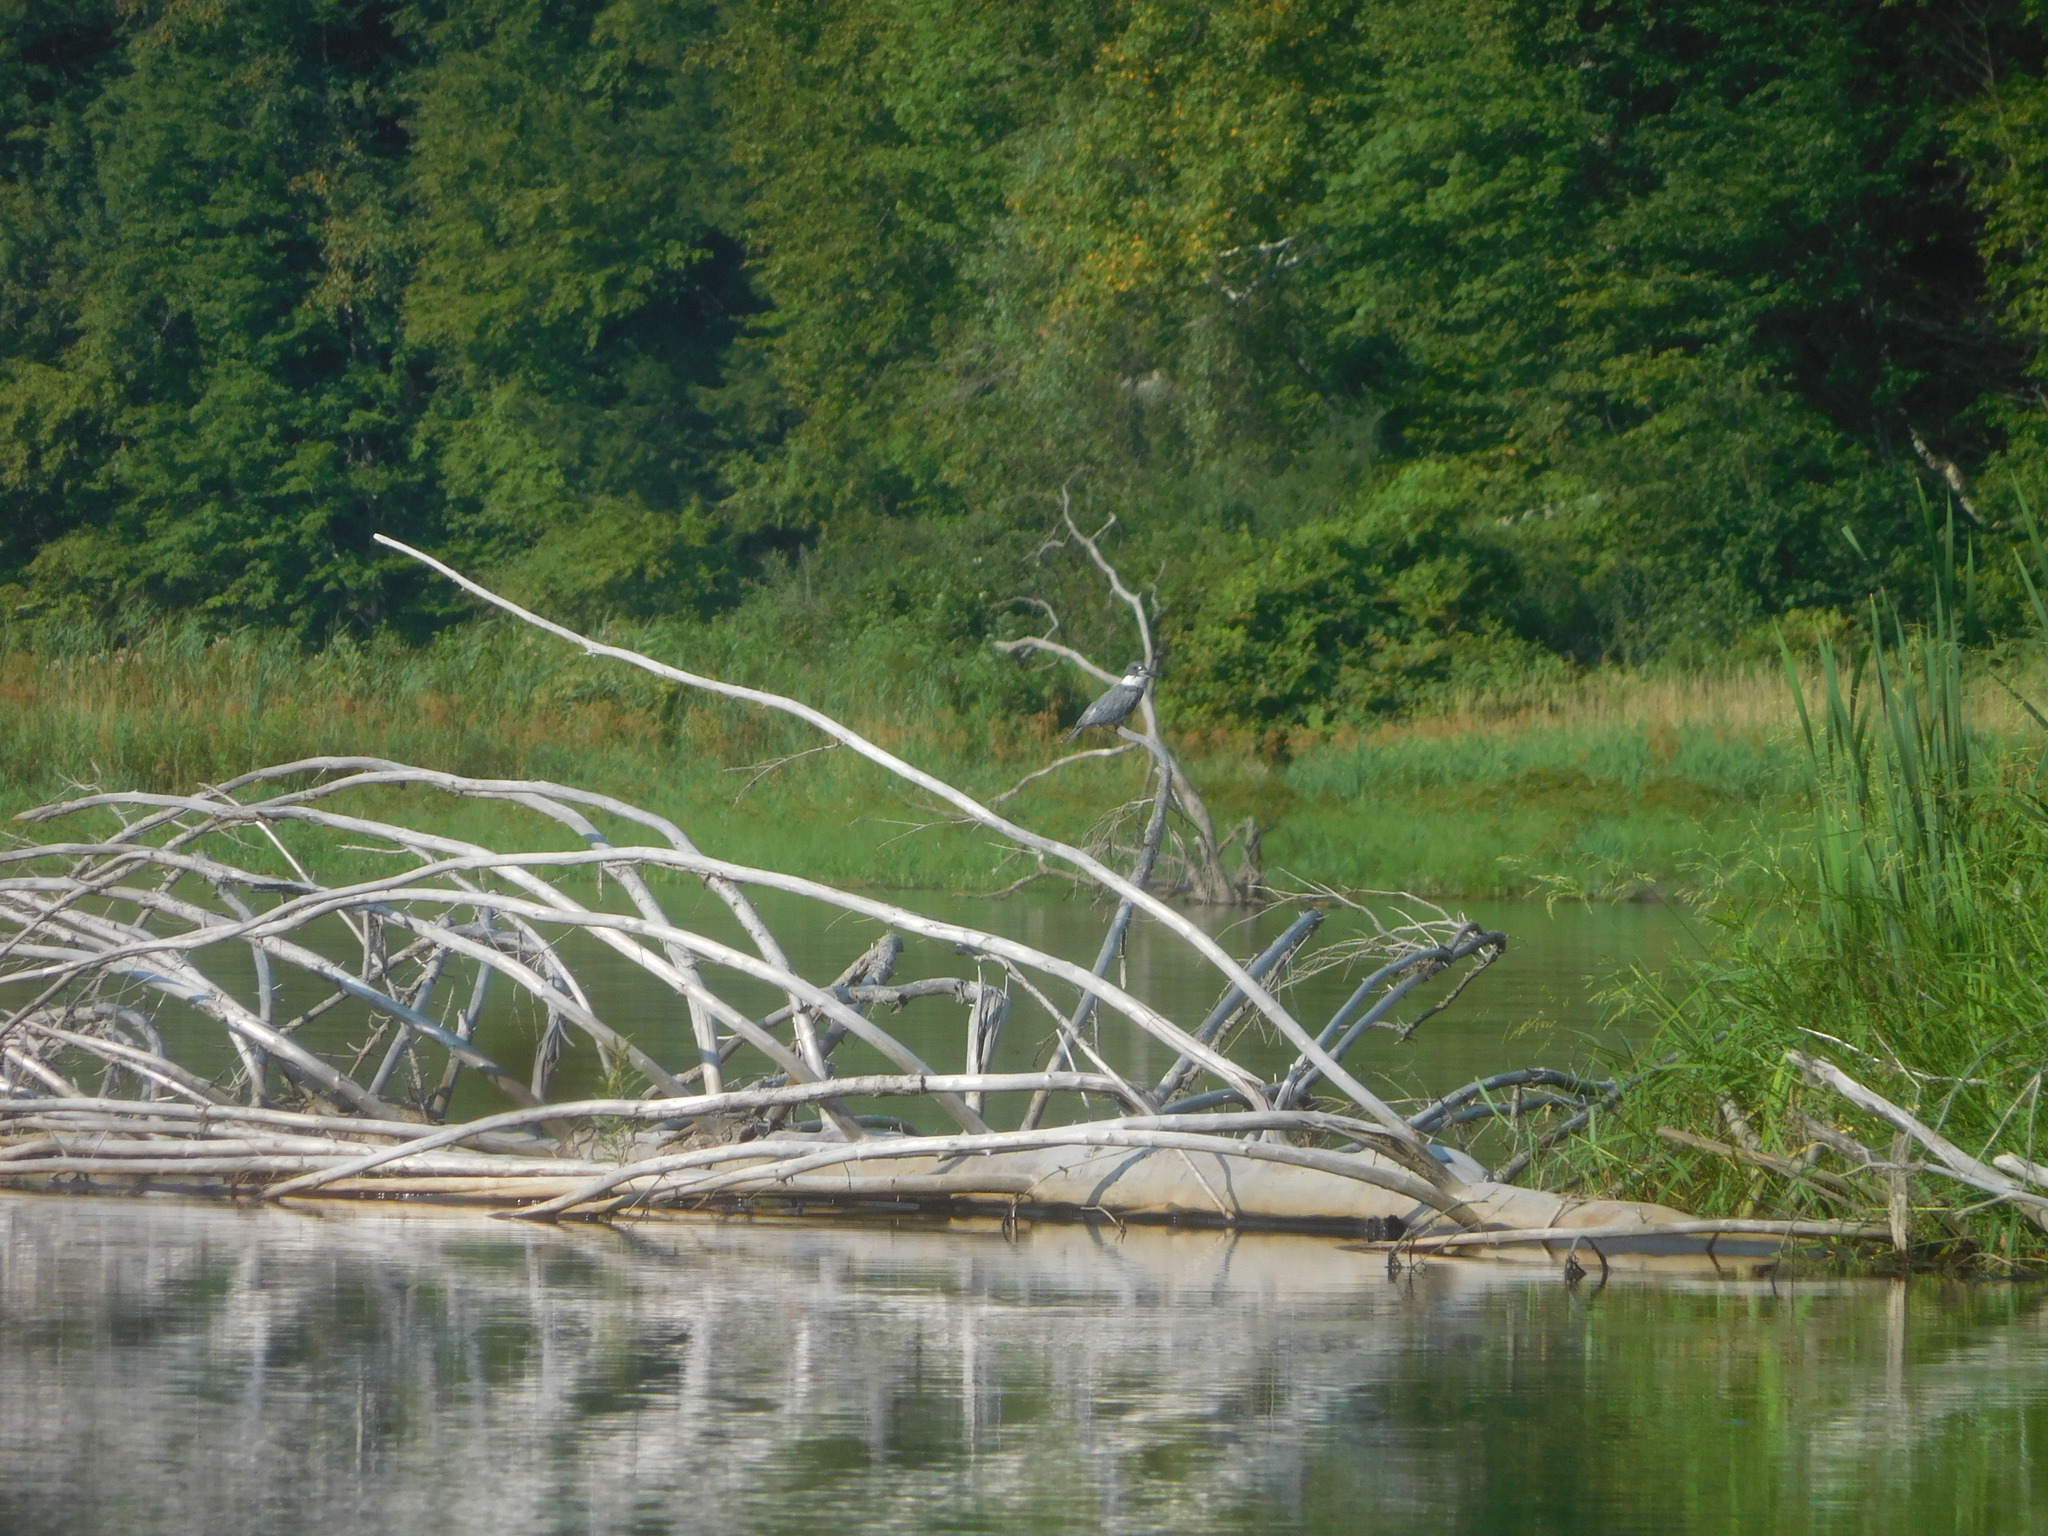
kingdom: Animalia
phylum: Chordata
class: Aves
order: Coraciiformes
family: Alcedinidae
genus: Megaceryle
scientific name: Megaceryle alcyon
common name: Belted kingfisher
